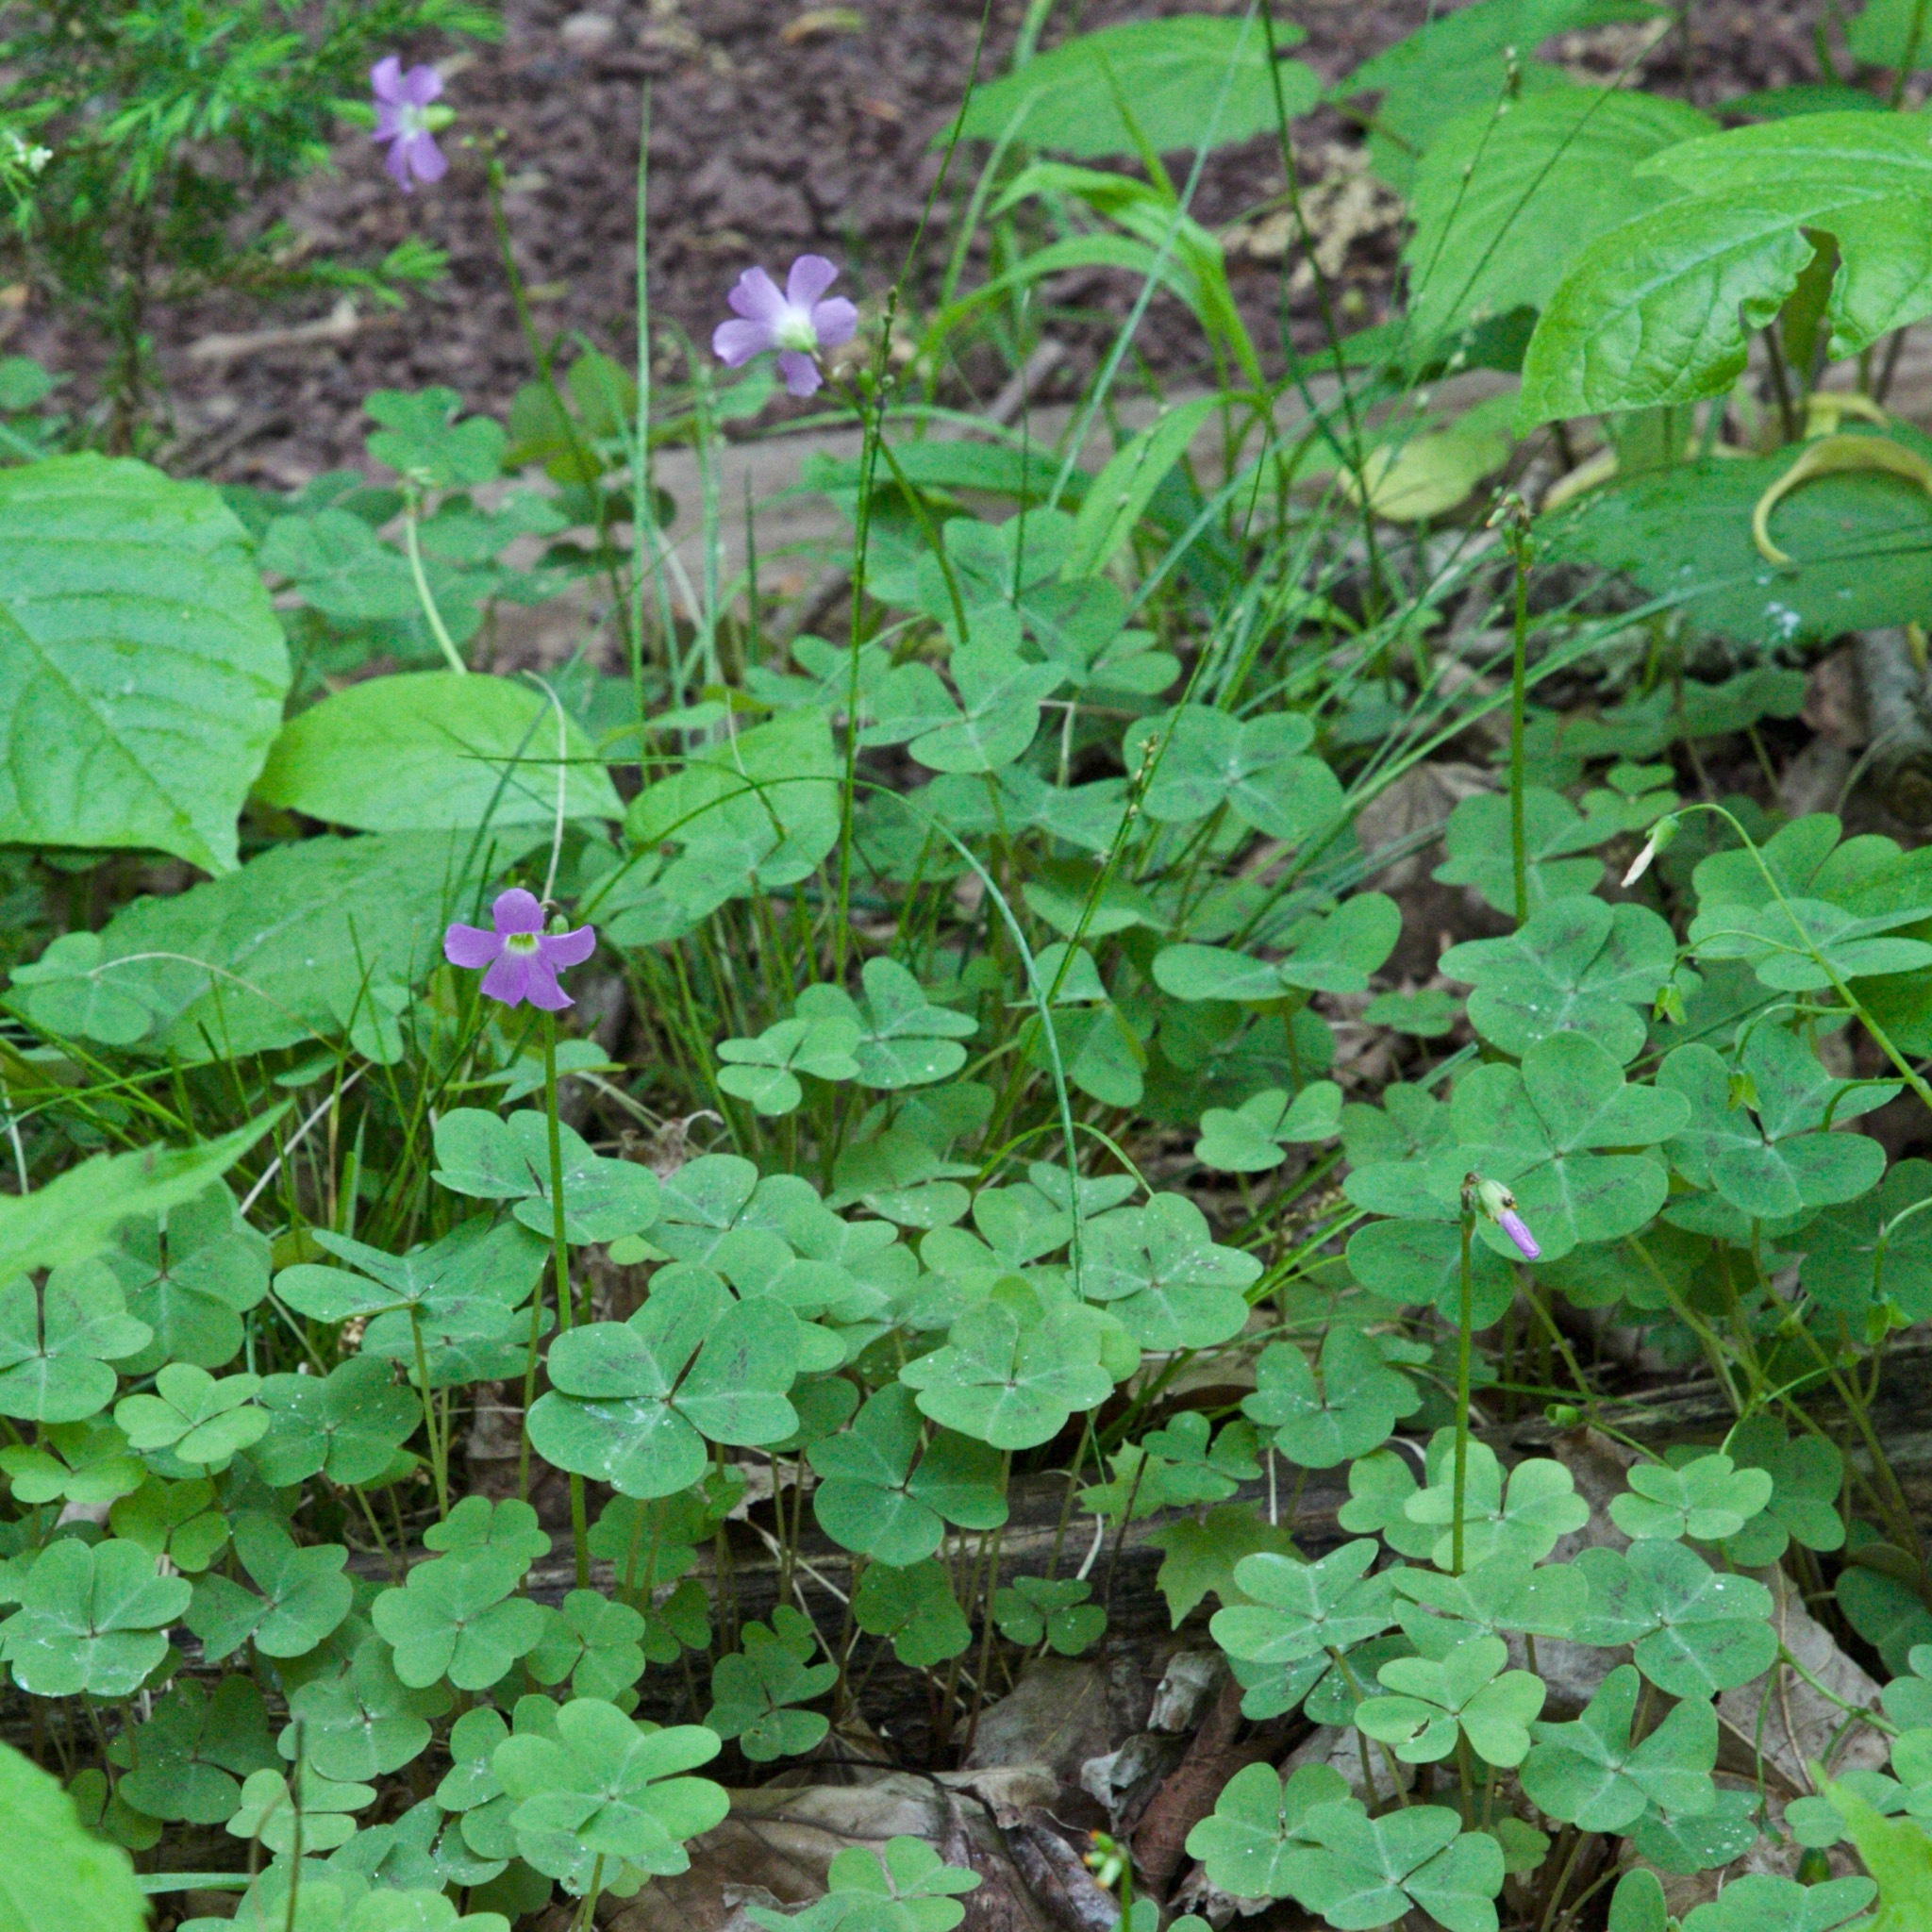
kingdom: Plantae
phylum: Tracheophyta
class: Magnoliopsida
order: Oxalidales
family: Oxalidaceae
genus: Oxalis
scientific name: Oxalis violacea
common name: Violet wood-sorrel
